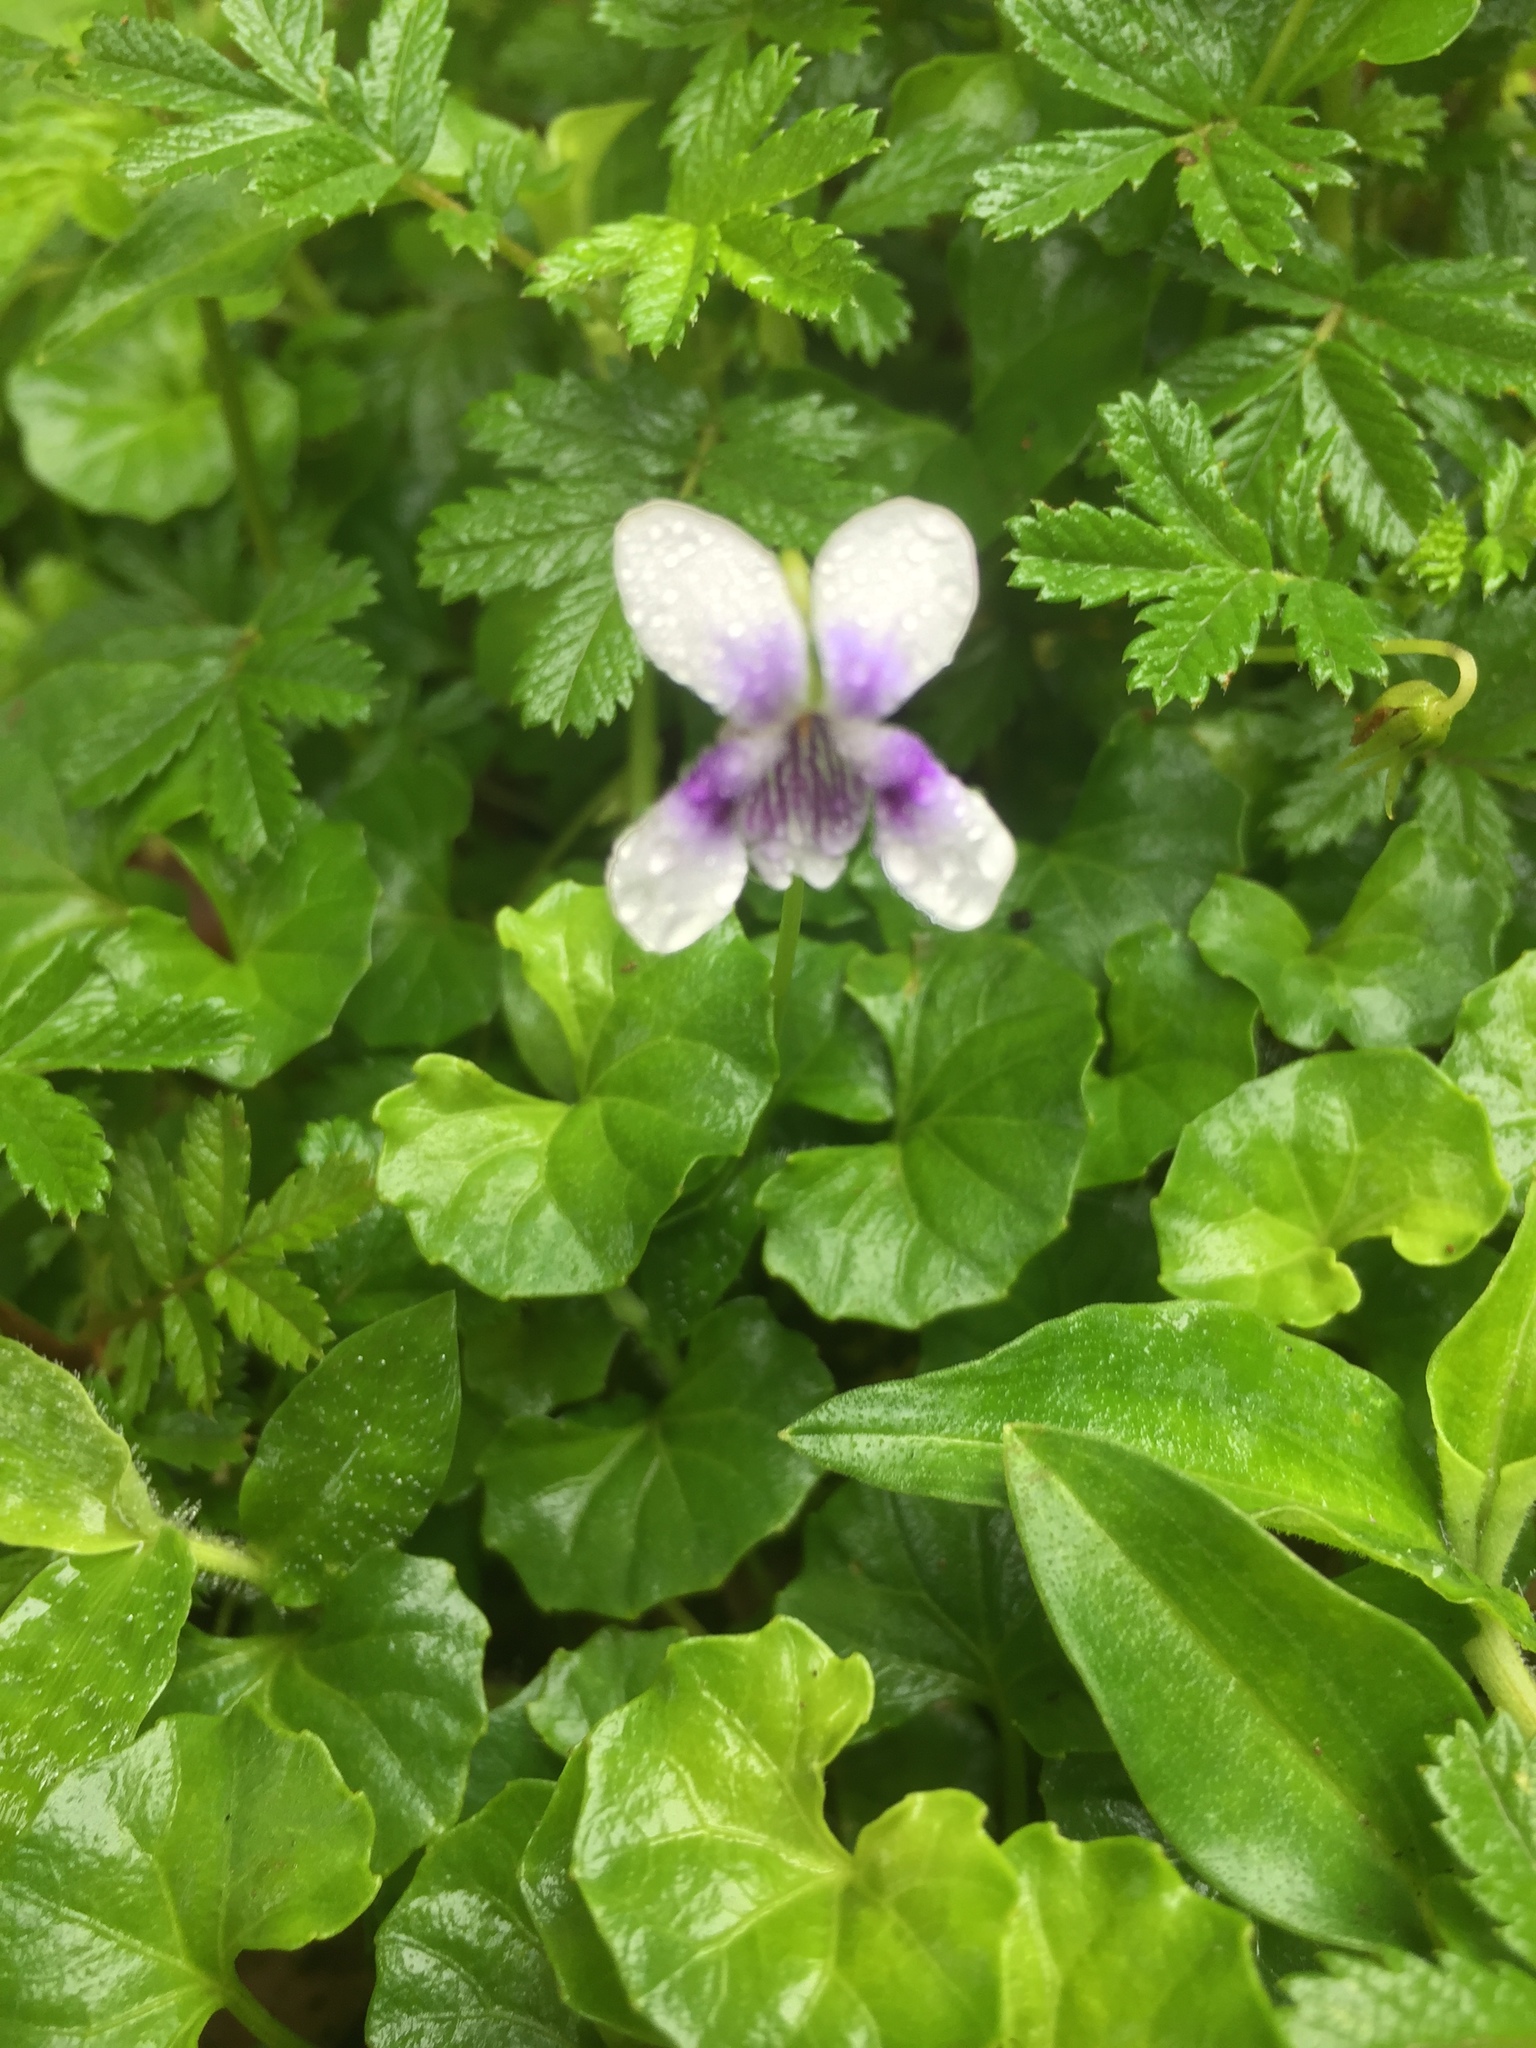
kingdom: Plantae
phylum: Tracheophyta
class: Magnoliopsida
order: Malpighiales
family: Violaceae
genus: Viola
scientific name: Viola banksii
